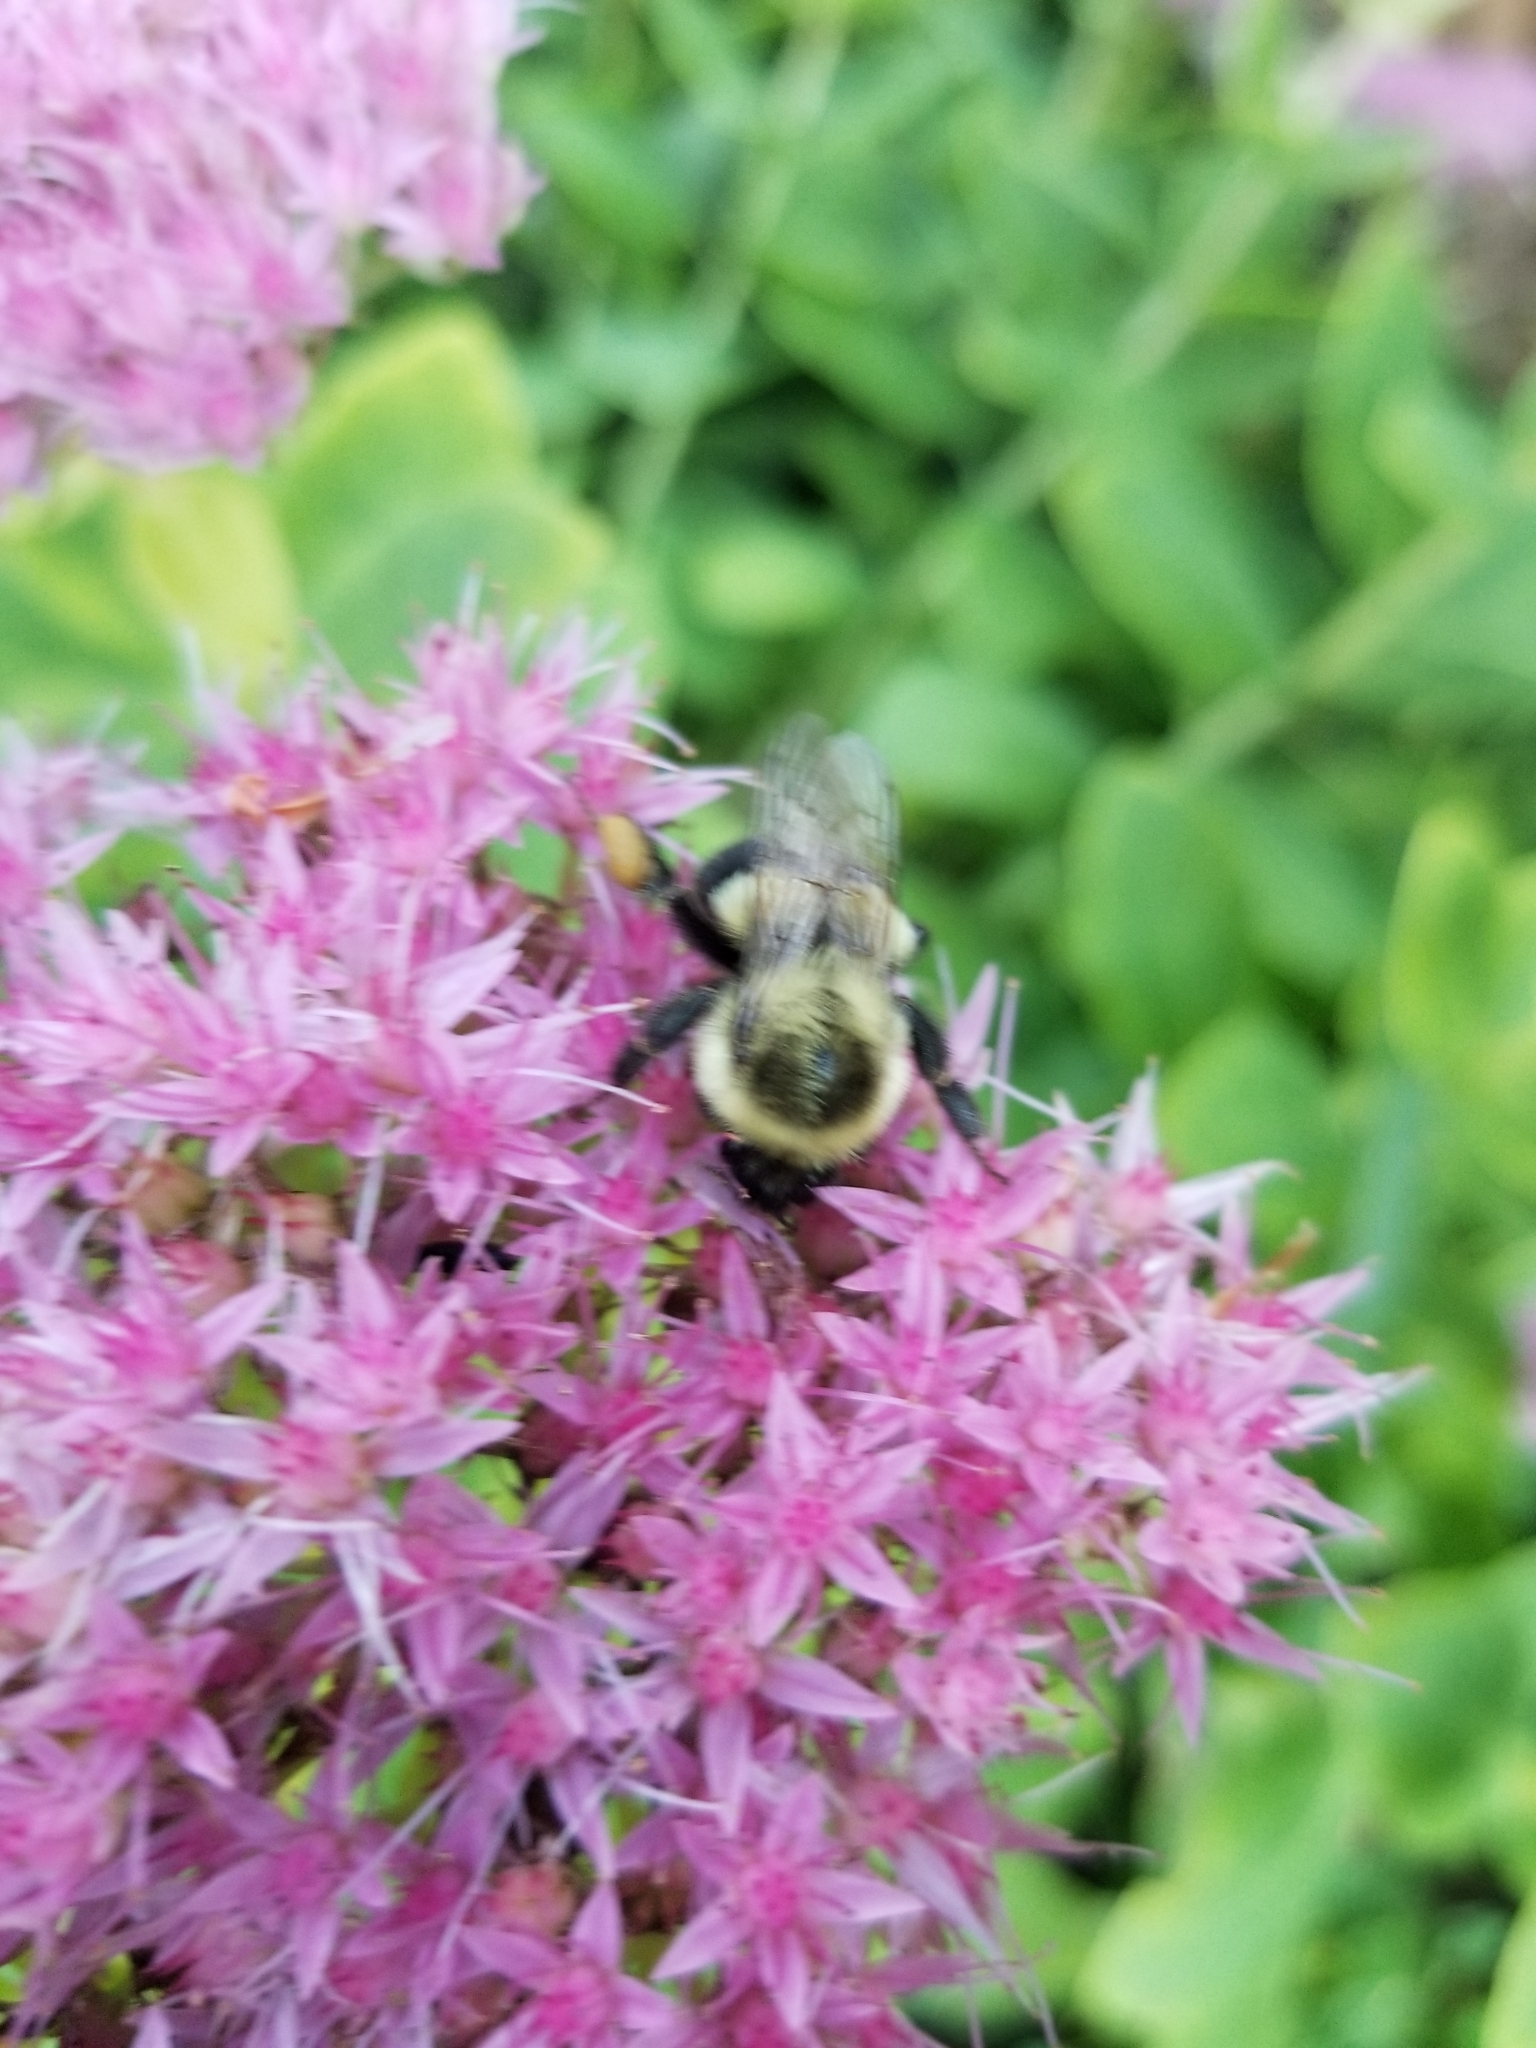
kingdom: Animalia
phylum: Arthropoda
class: Insecta
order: Hymenoptera
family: Apidae
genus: Bombus
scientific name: Bombus impatiens
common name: Common eastern bumble bee
